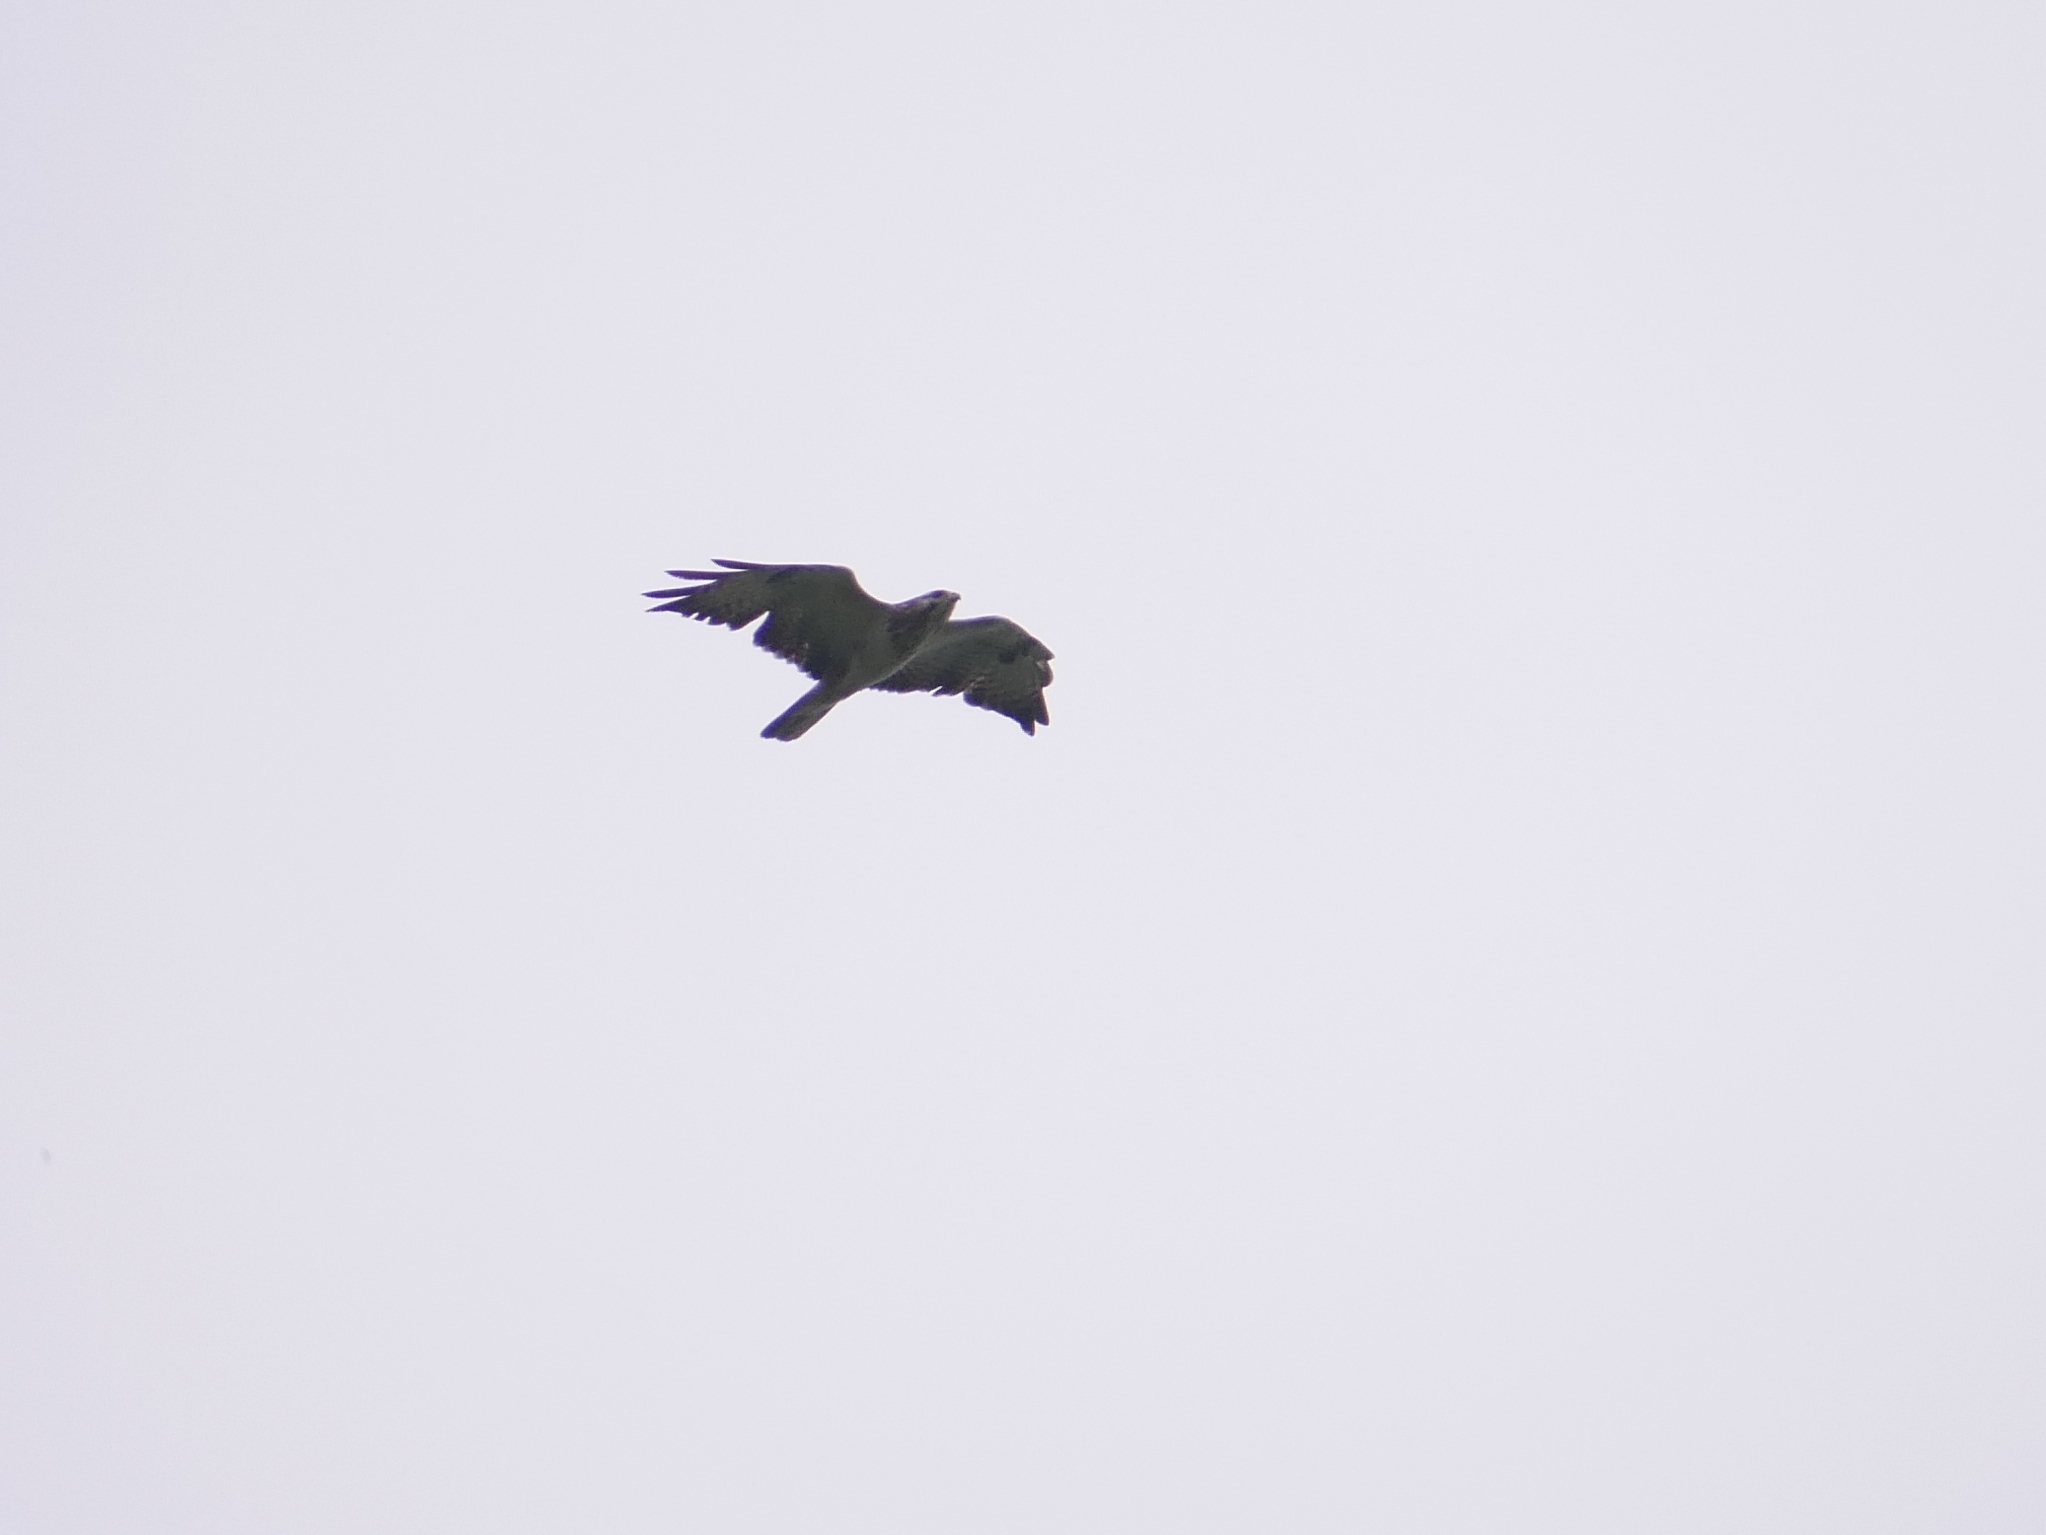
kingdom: Animalia
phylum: Chordata
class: Aves
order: Accipitriformes
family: Accipitridae
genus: Buteo
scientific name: Buteo buteo
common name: Common buzzard
